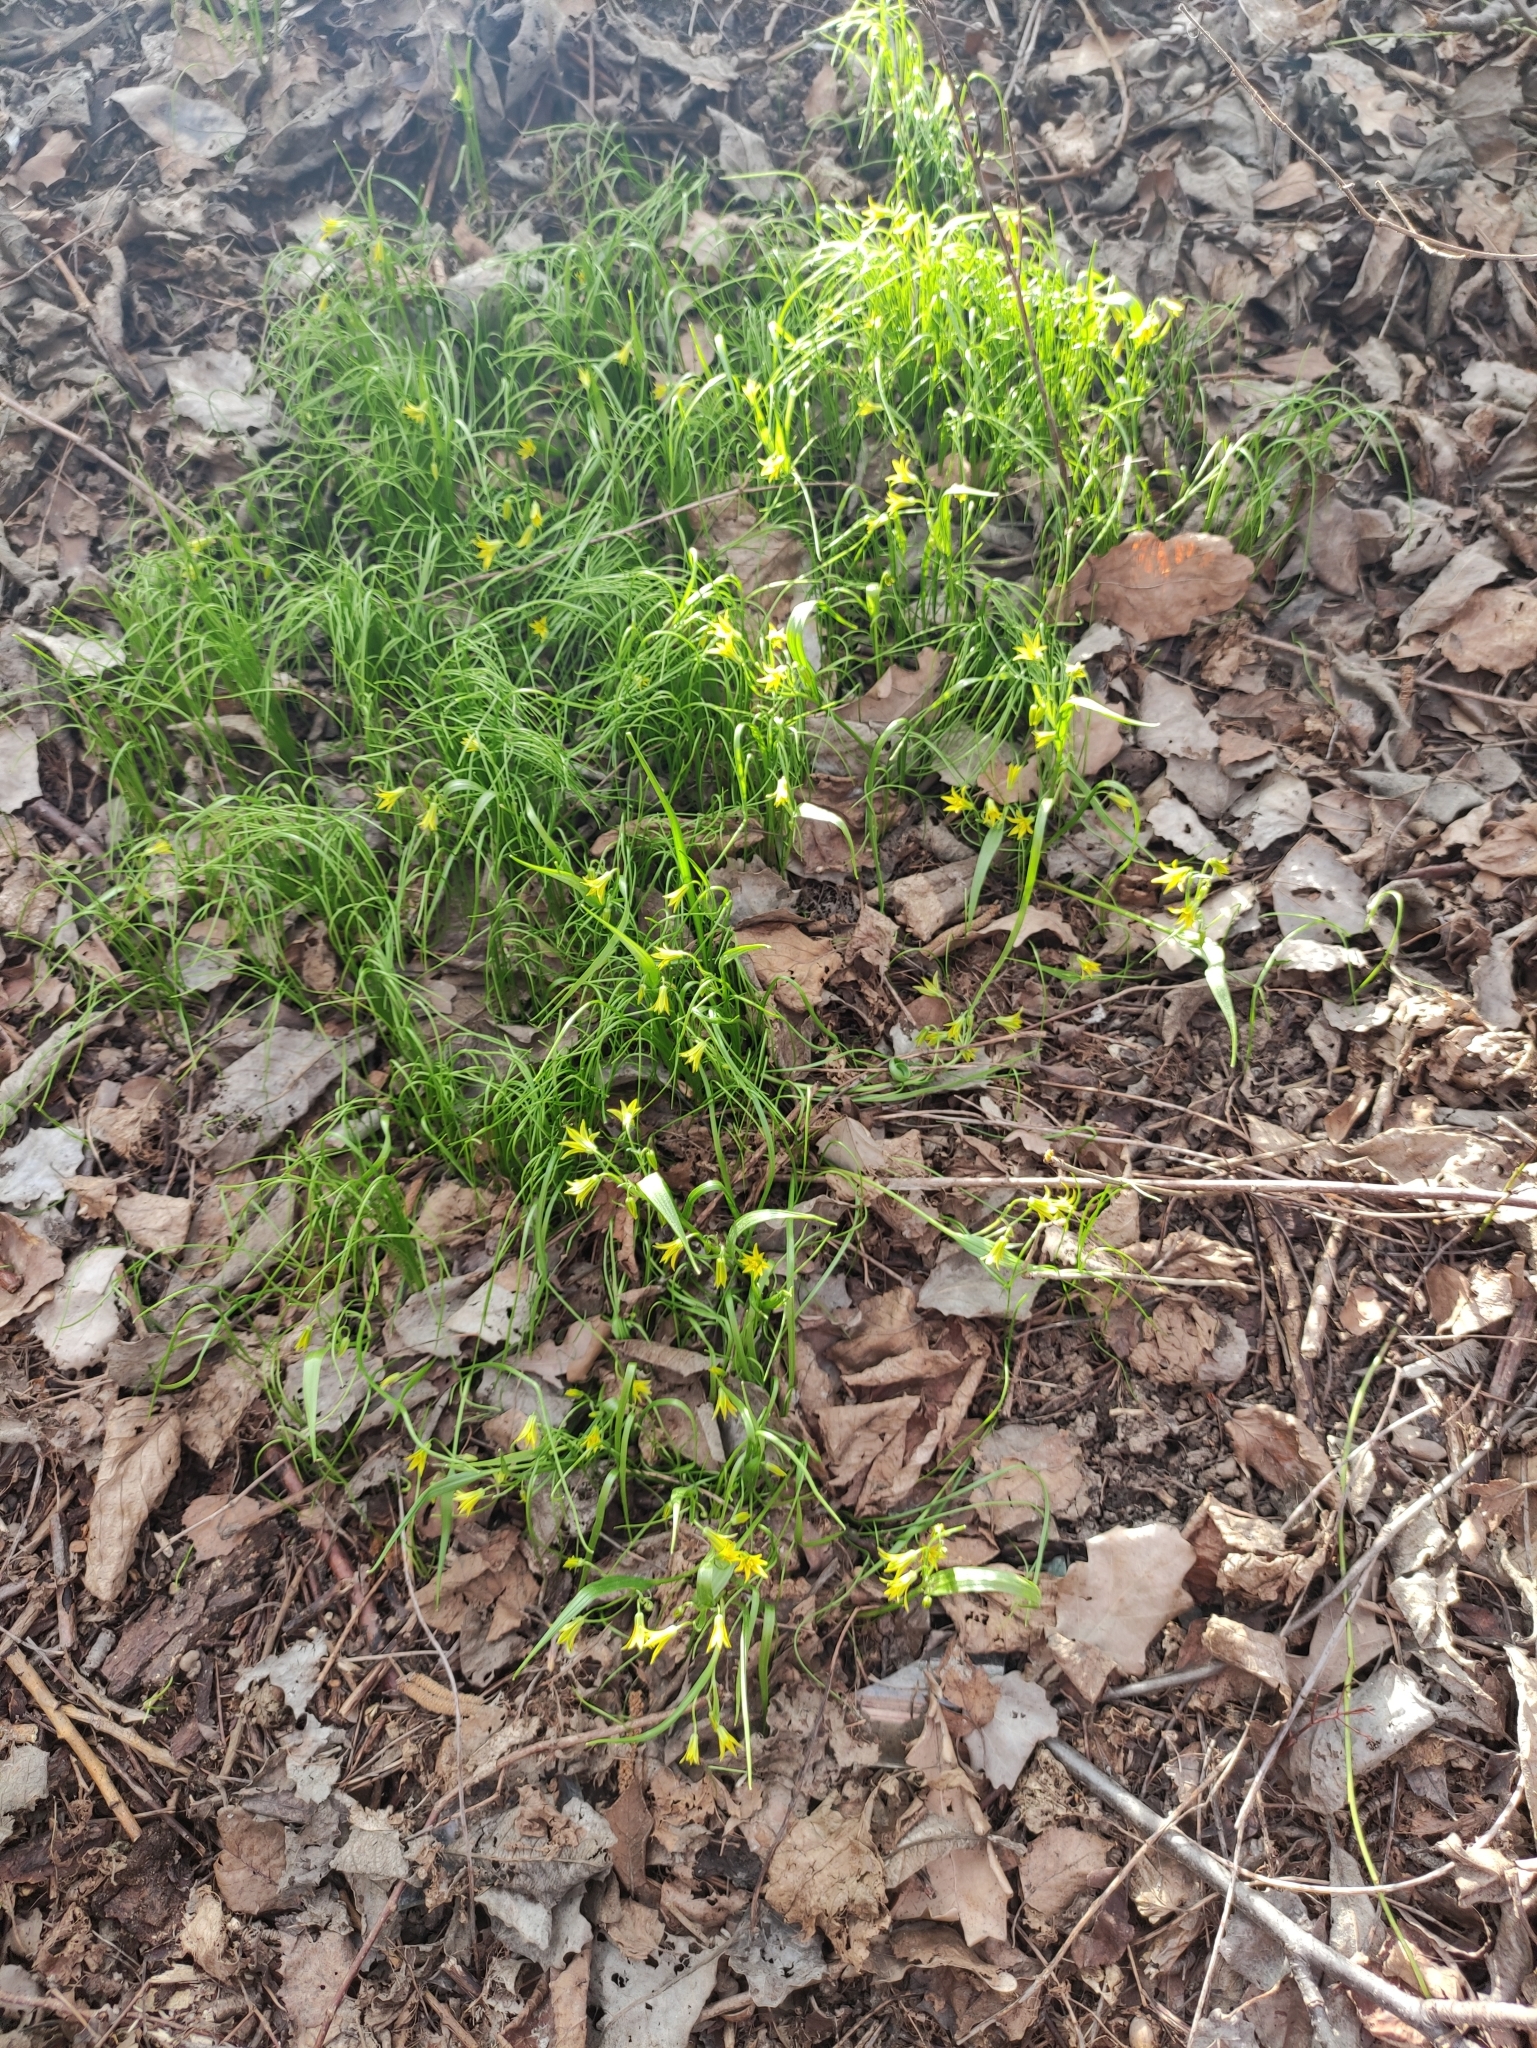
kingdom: Plantae
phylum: Tracheophyta
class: Liliopsida
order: Liliales
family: Liliaceae
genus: Gagea
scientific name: Gagea minima
